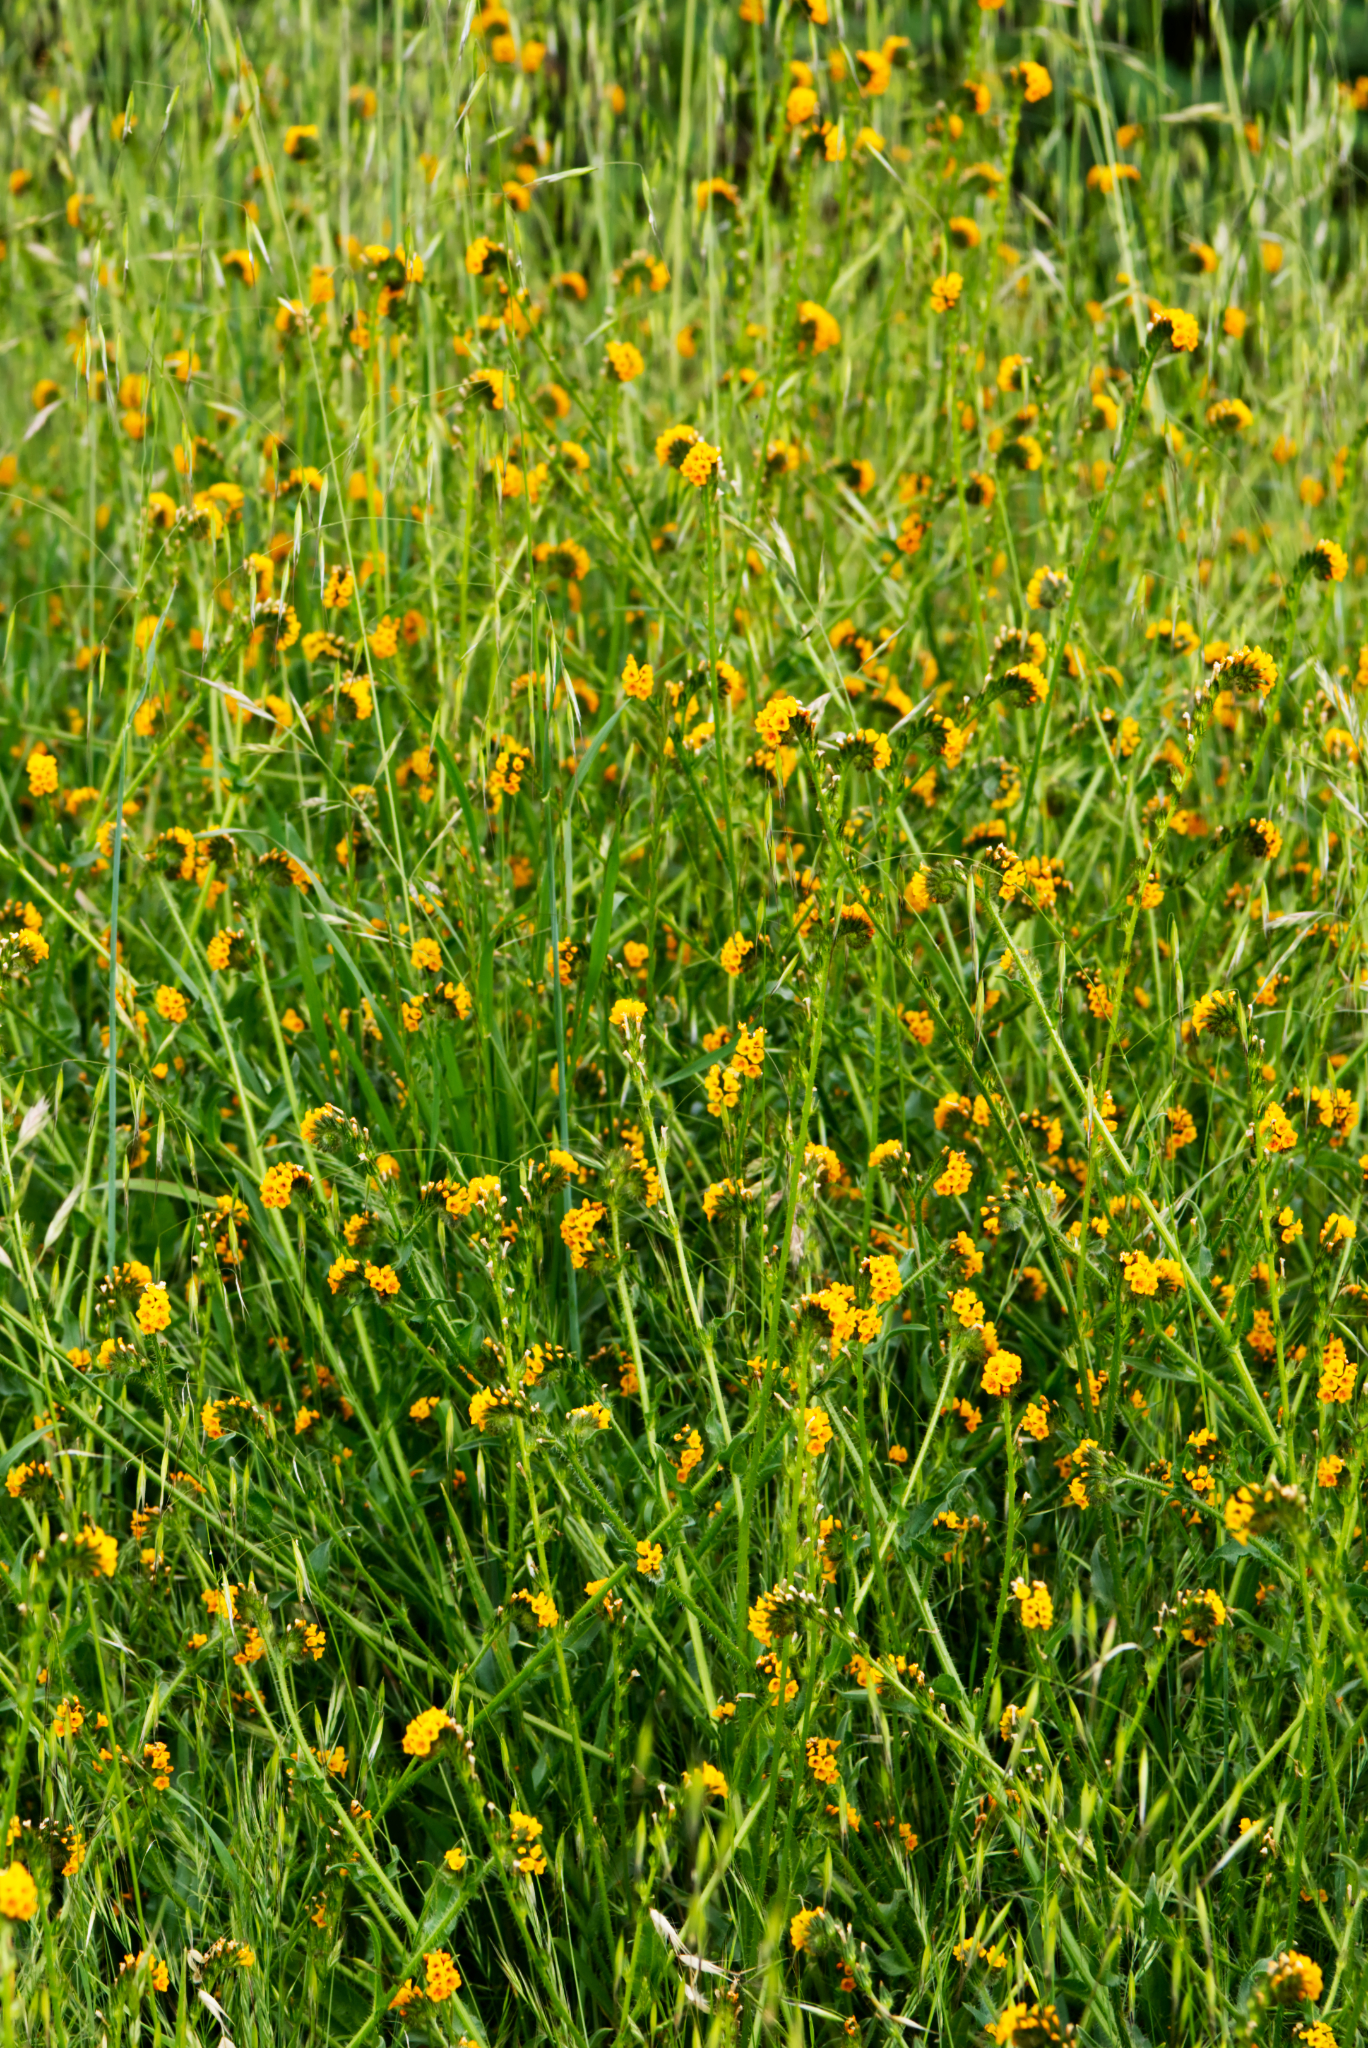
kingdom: Plantae
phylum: Tracheophyta
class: Magnoliopsida
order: Boraginales
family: Boraginaceae
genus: Amsinckia
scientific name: Amsinckia menziesii
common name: Menzies' fiddleneck
